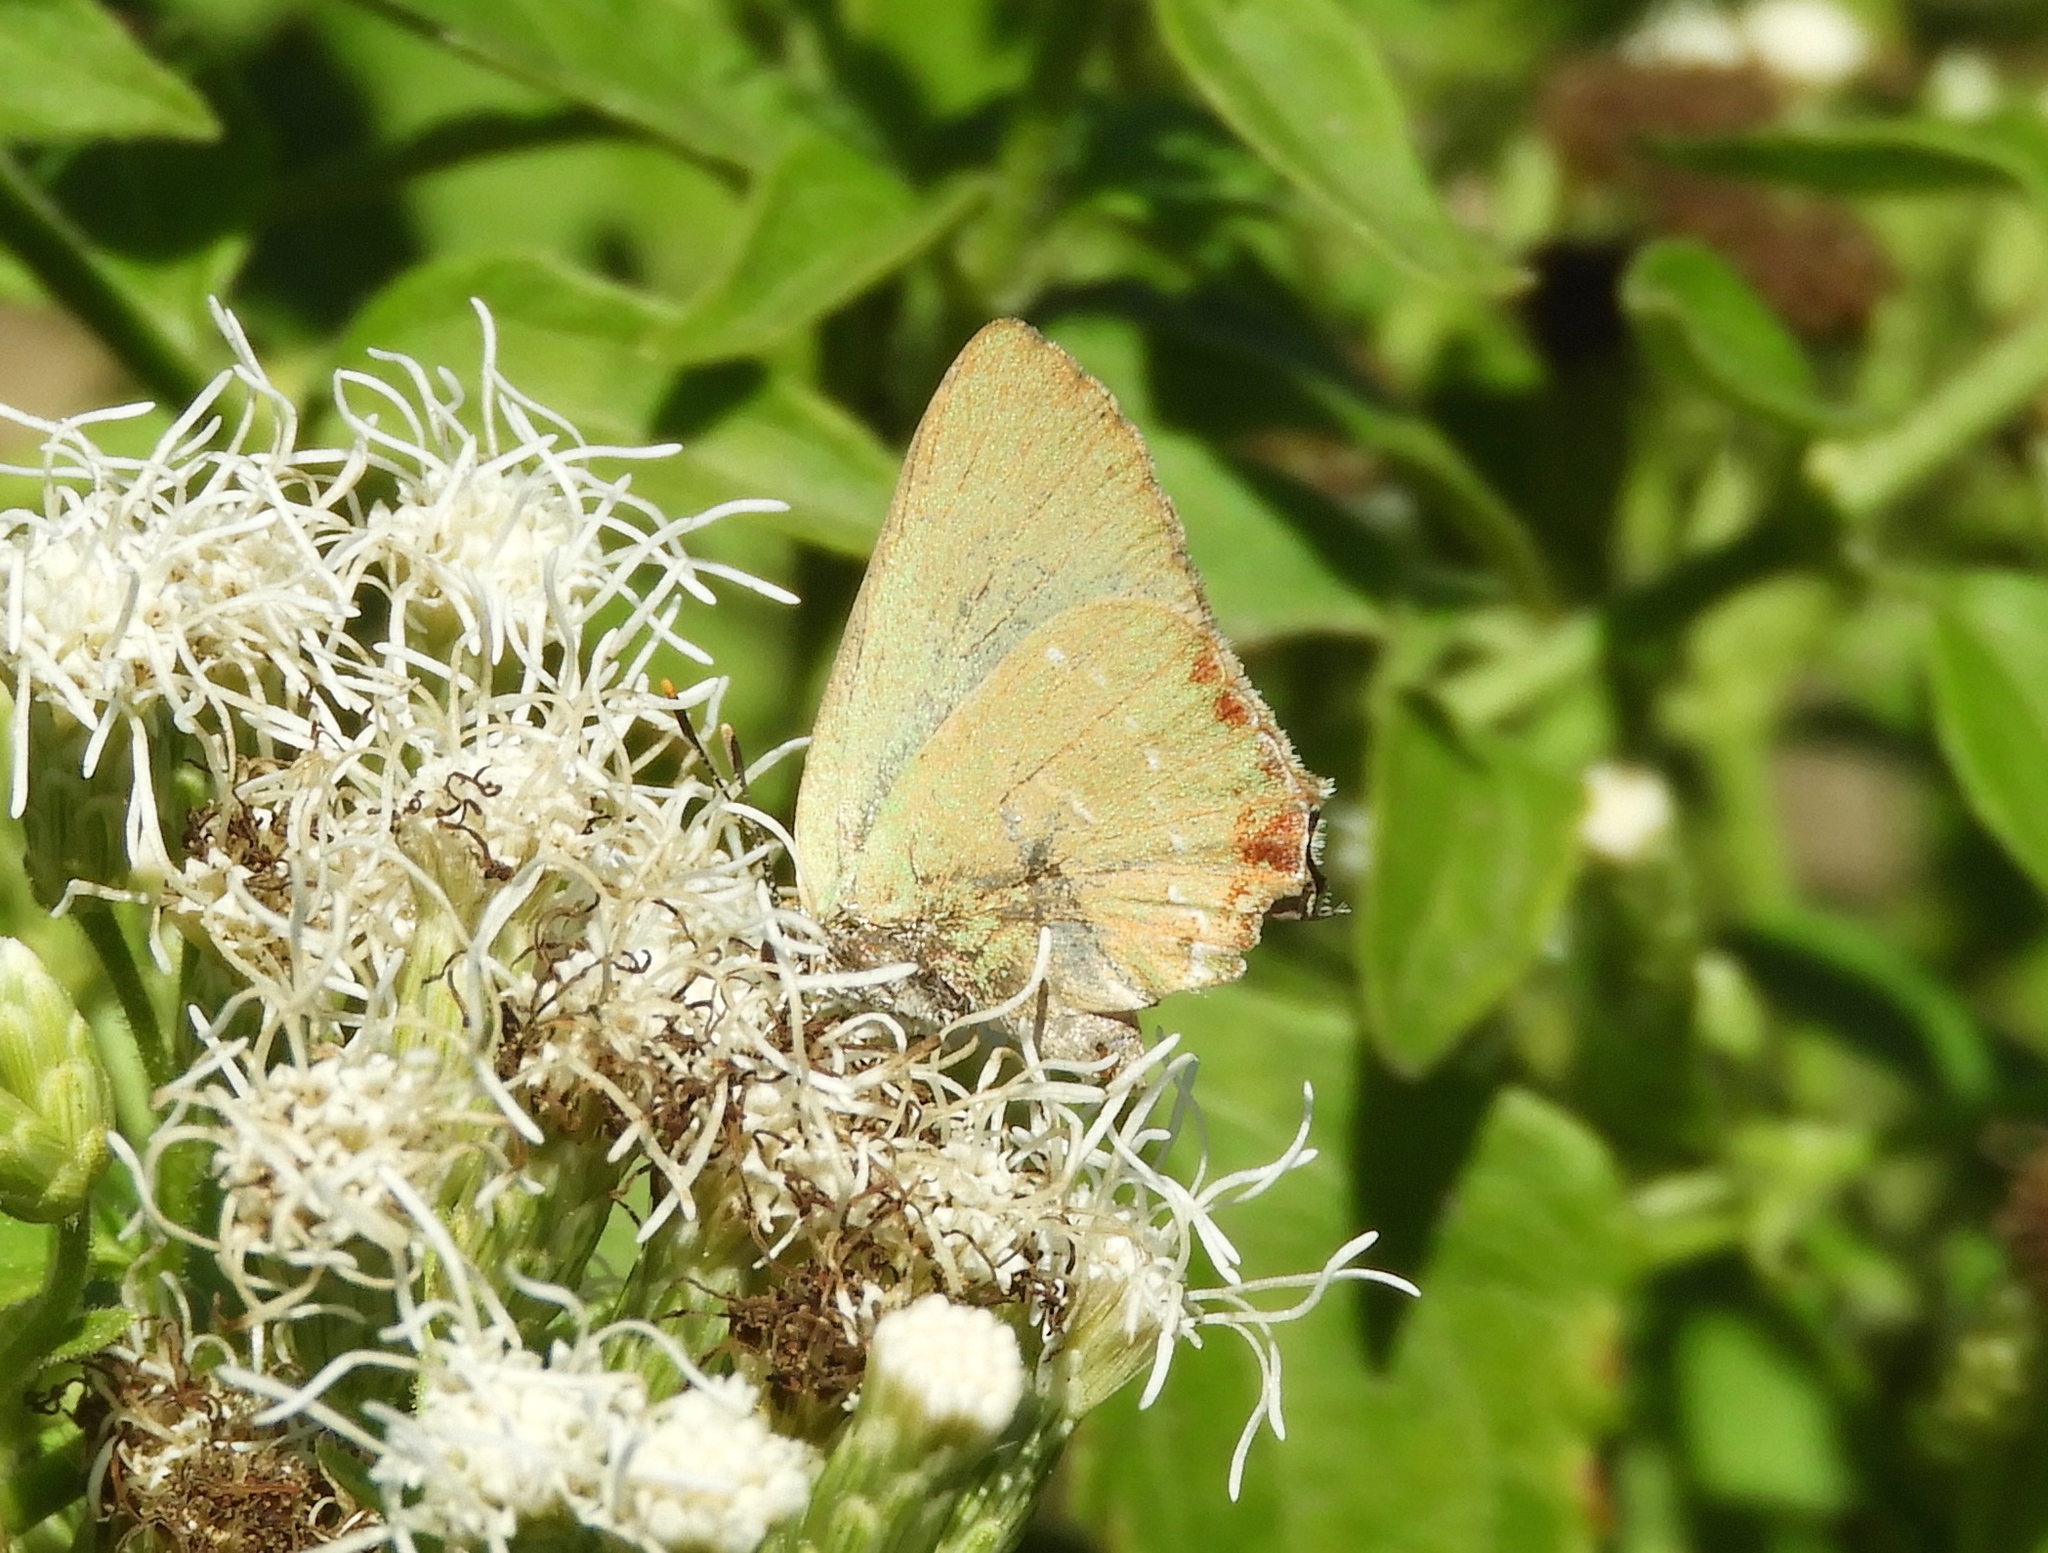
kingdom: Animalia
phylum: Arthropoda
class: Insecta
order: Lepidoptera
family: Lycaenidae
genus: Cyanophrys
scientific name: Cyanophrys miserabilis
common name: Clench's greenstreak
